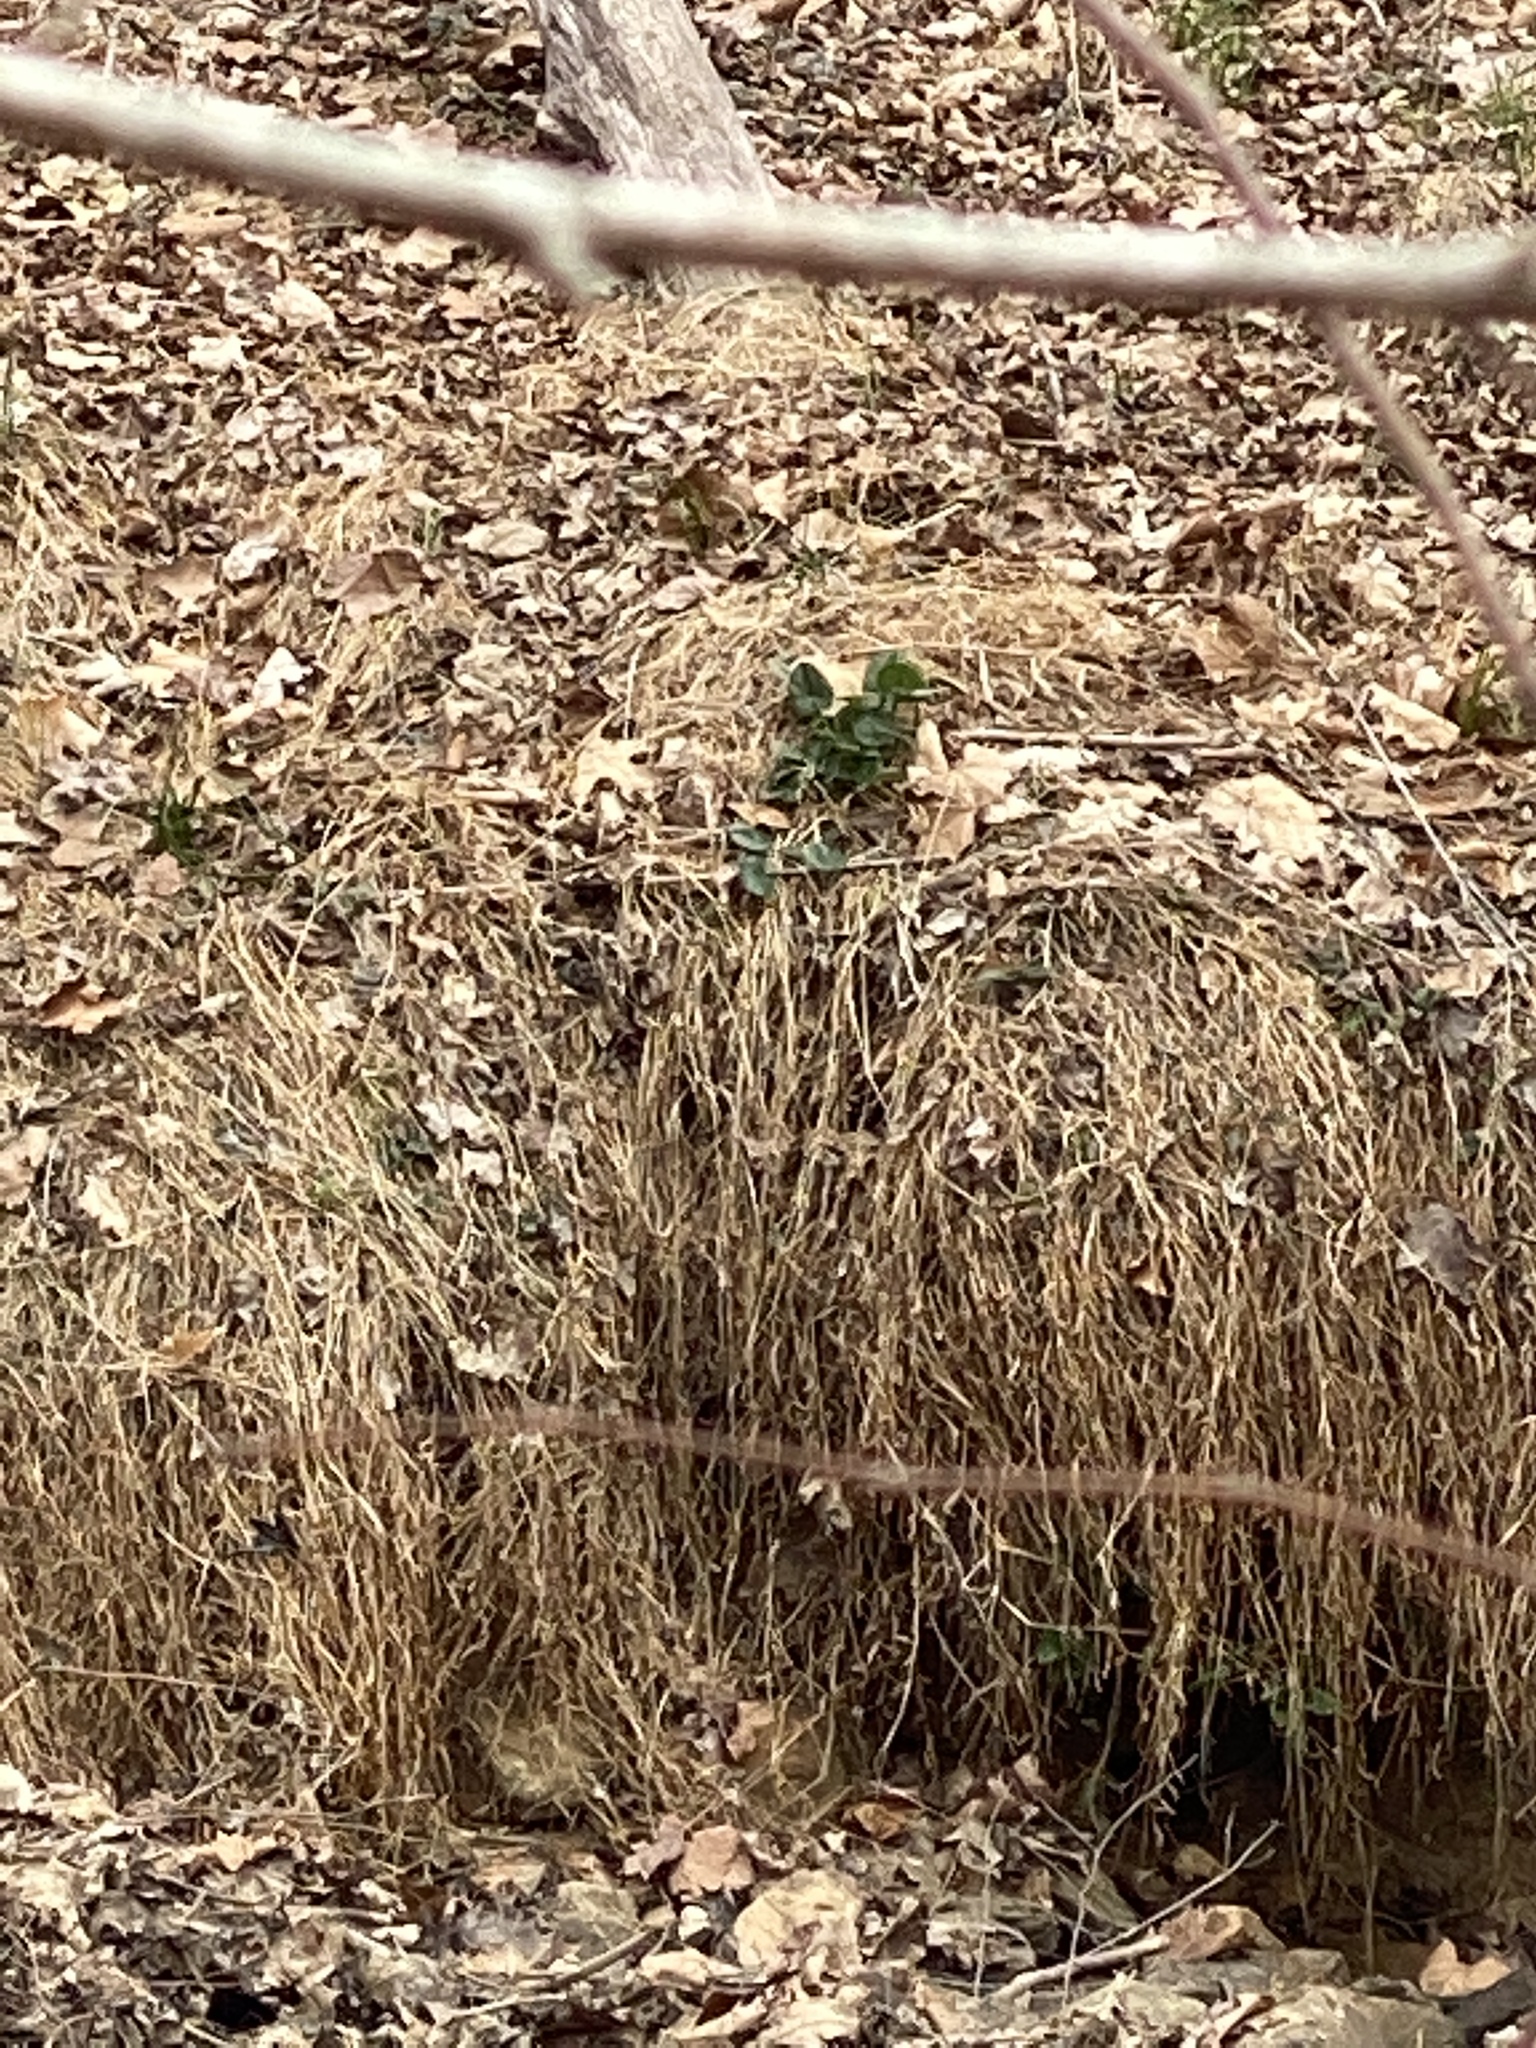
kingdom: Plantae
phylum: Tracheophyta
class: Magnoliopsida
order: Ranunculales
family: Ranunculaceae
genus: Ficaria
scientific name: Ficaria verna
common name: Lesser celandine
